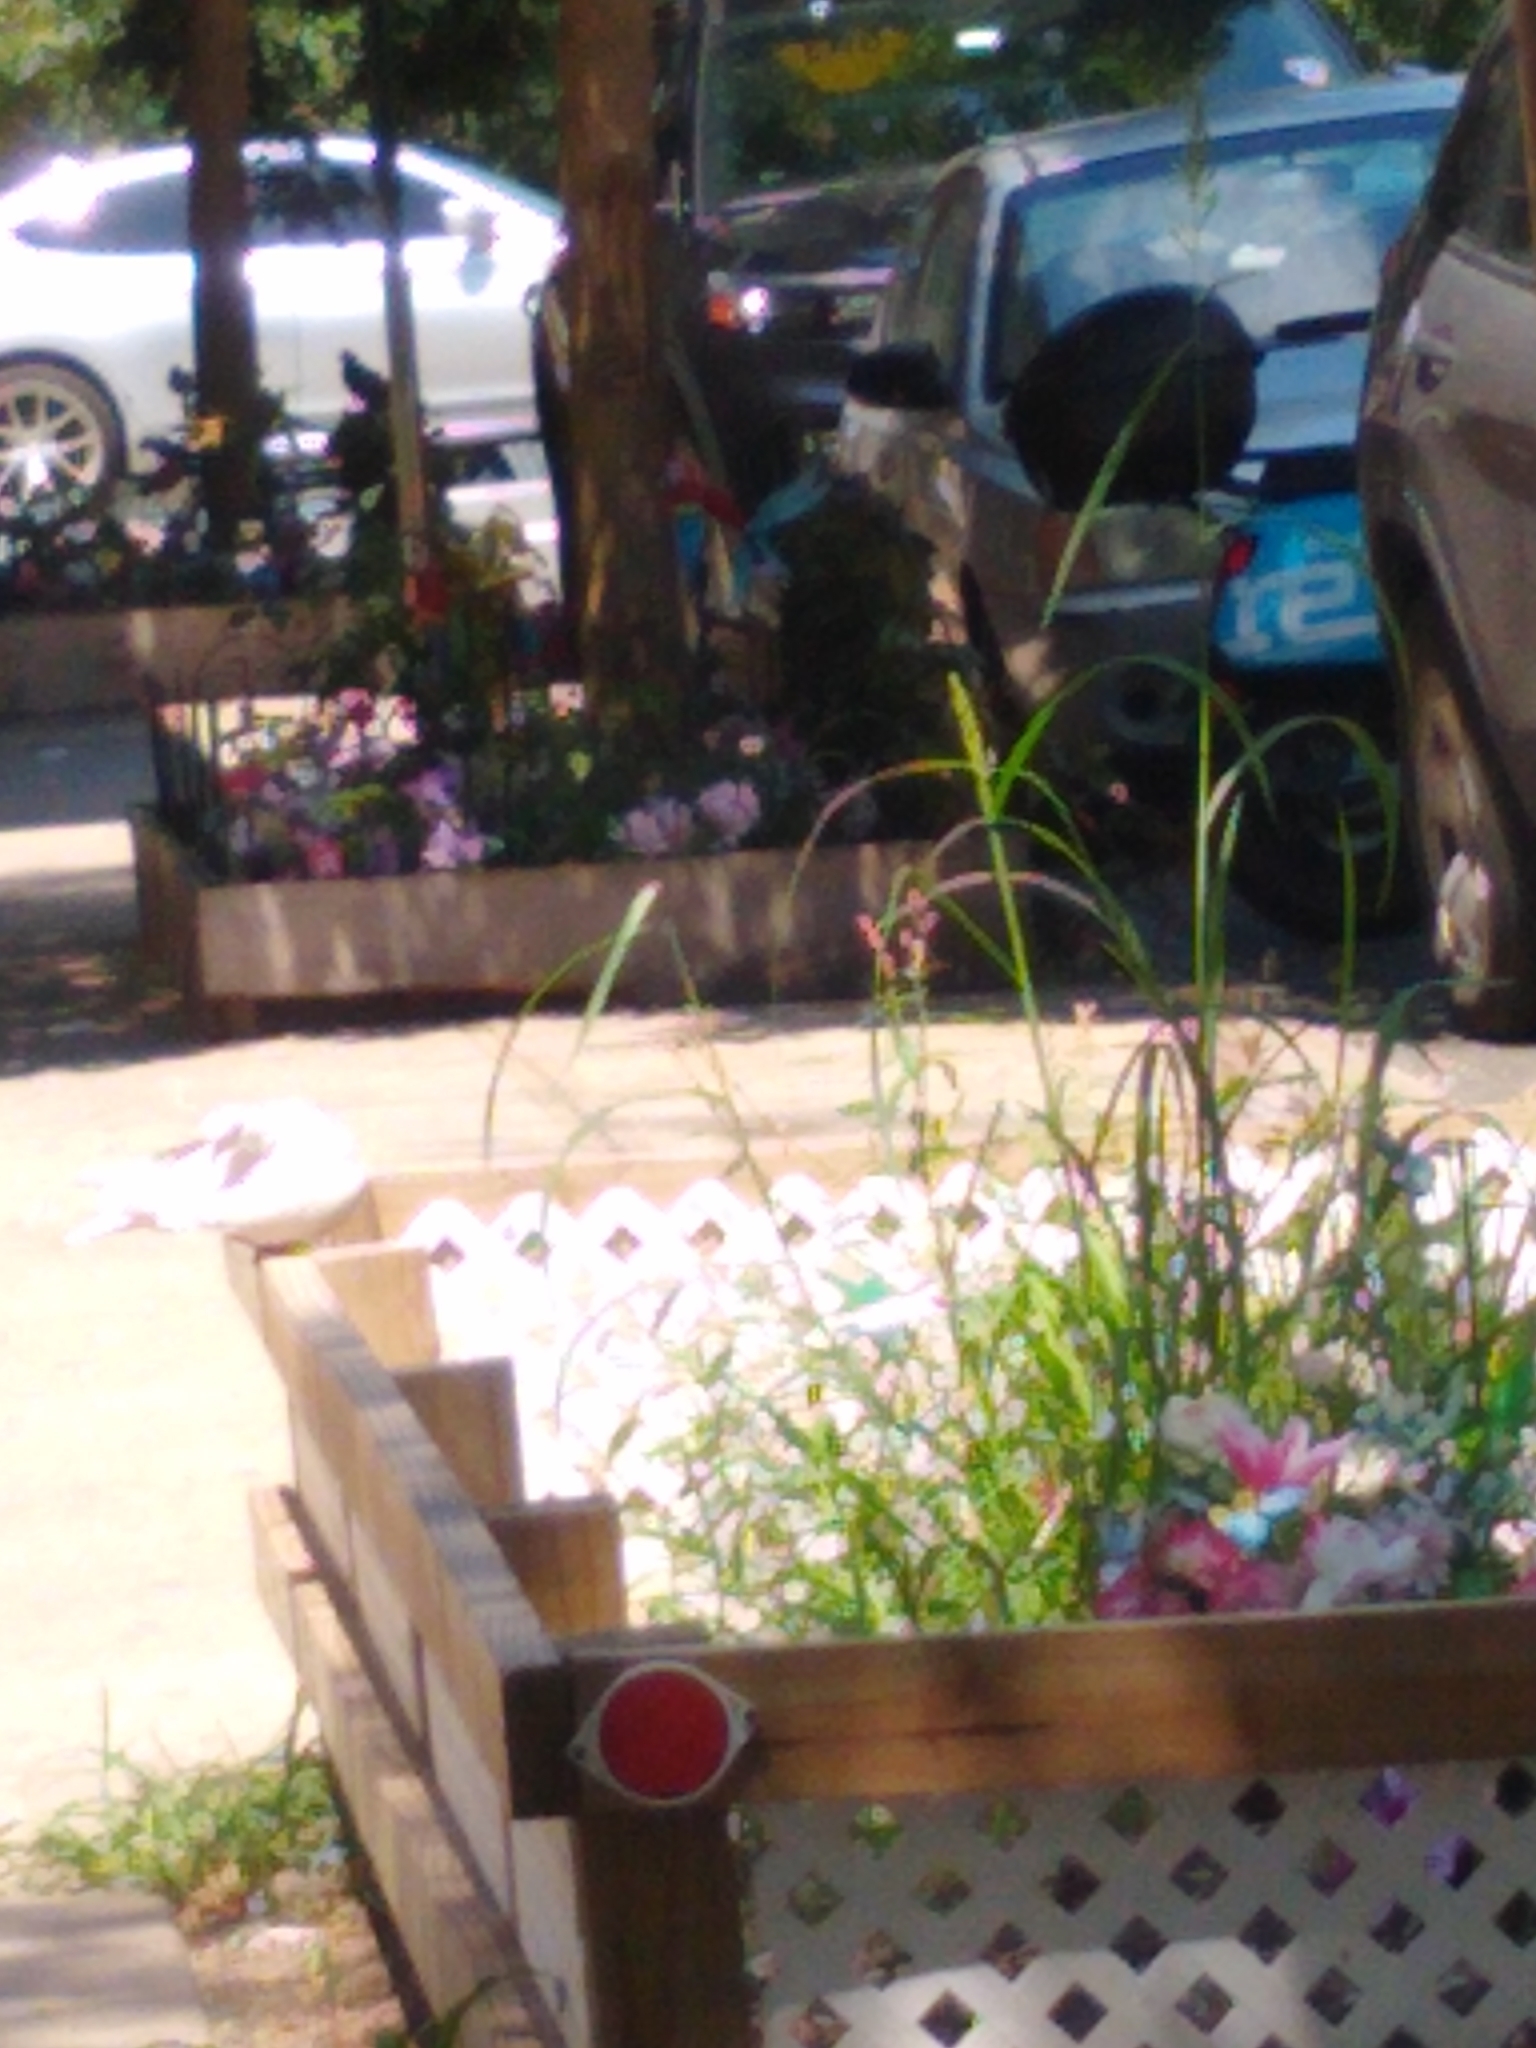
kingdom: Animalia
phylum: Chordata
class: Aves
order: Columbiformes
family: Columbidae
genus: Columba
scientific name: Columba livia
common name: Rock pigeon
